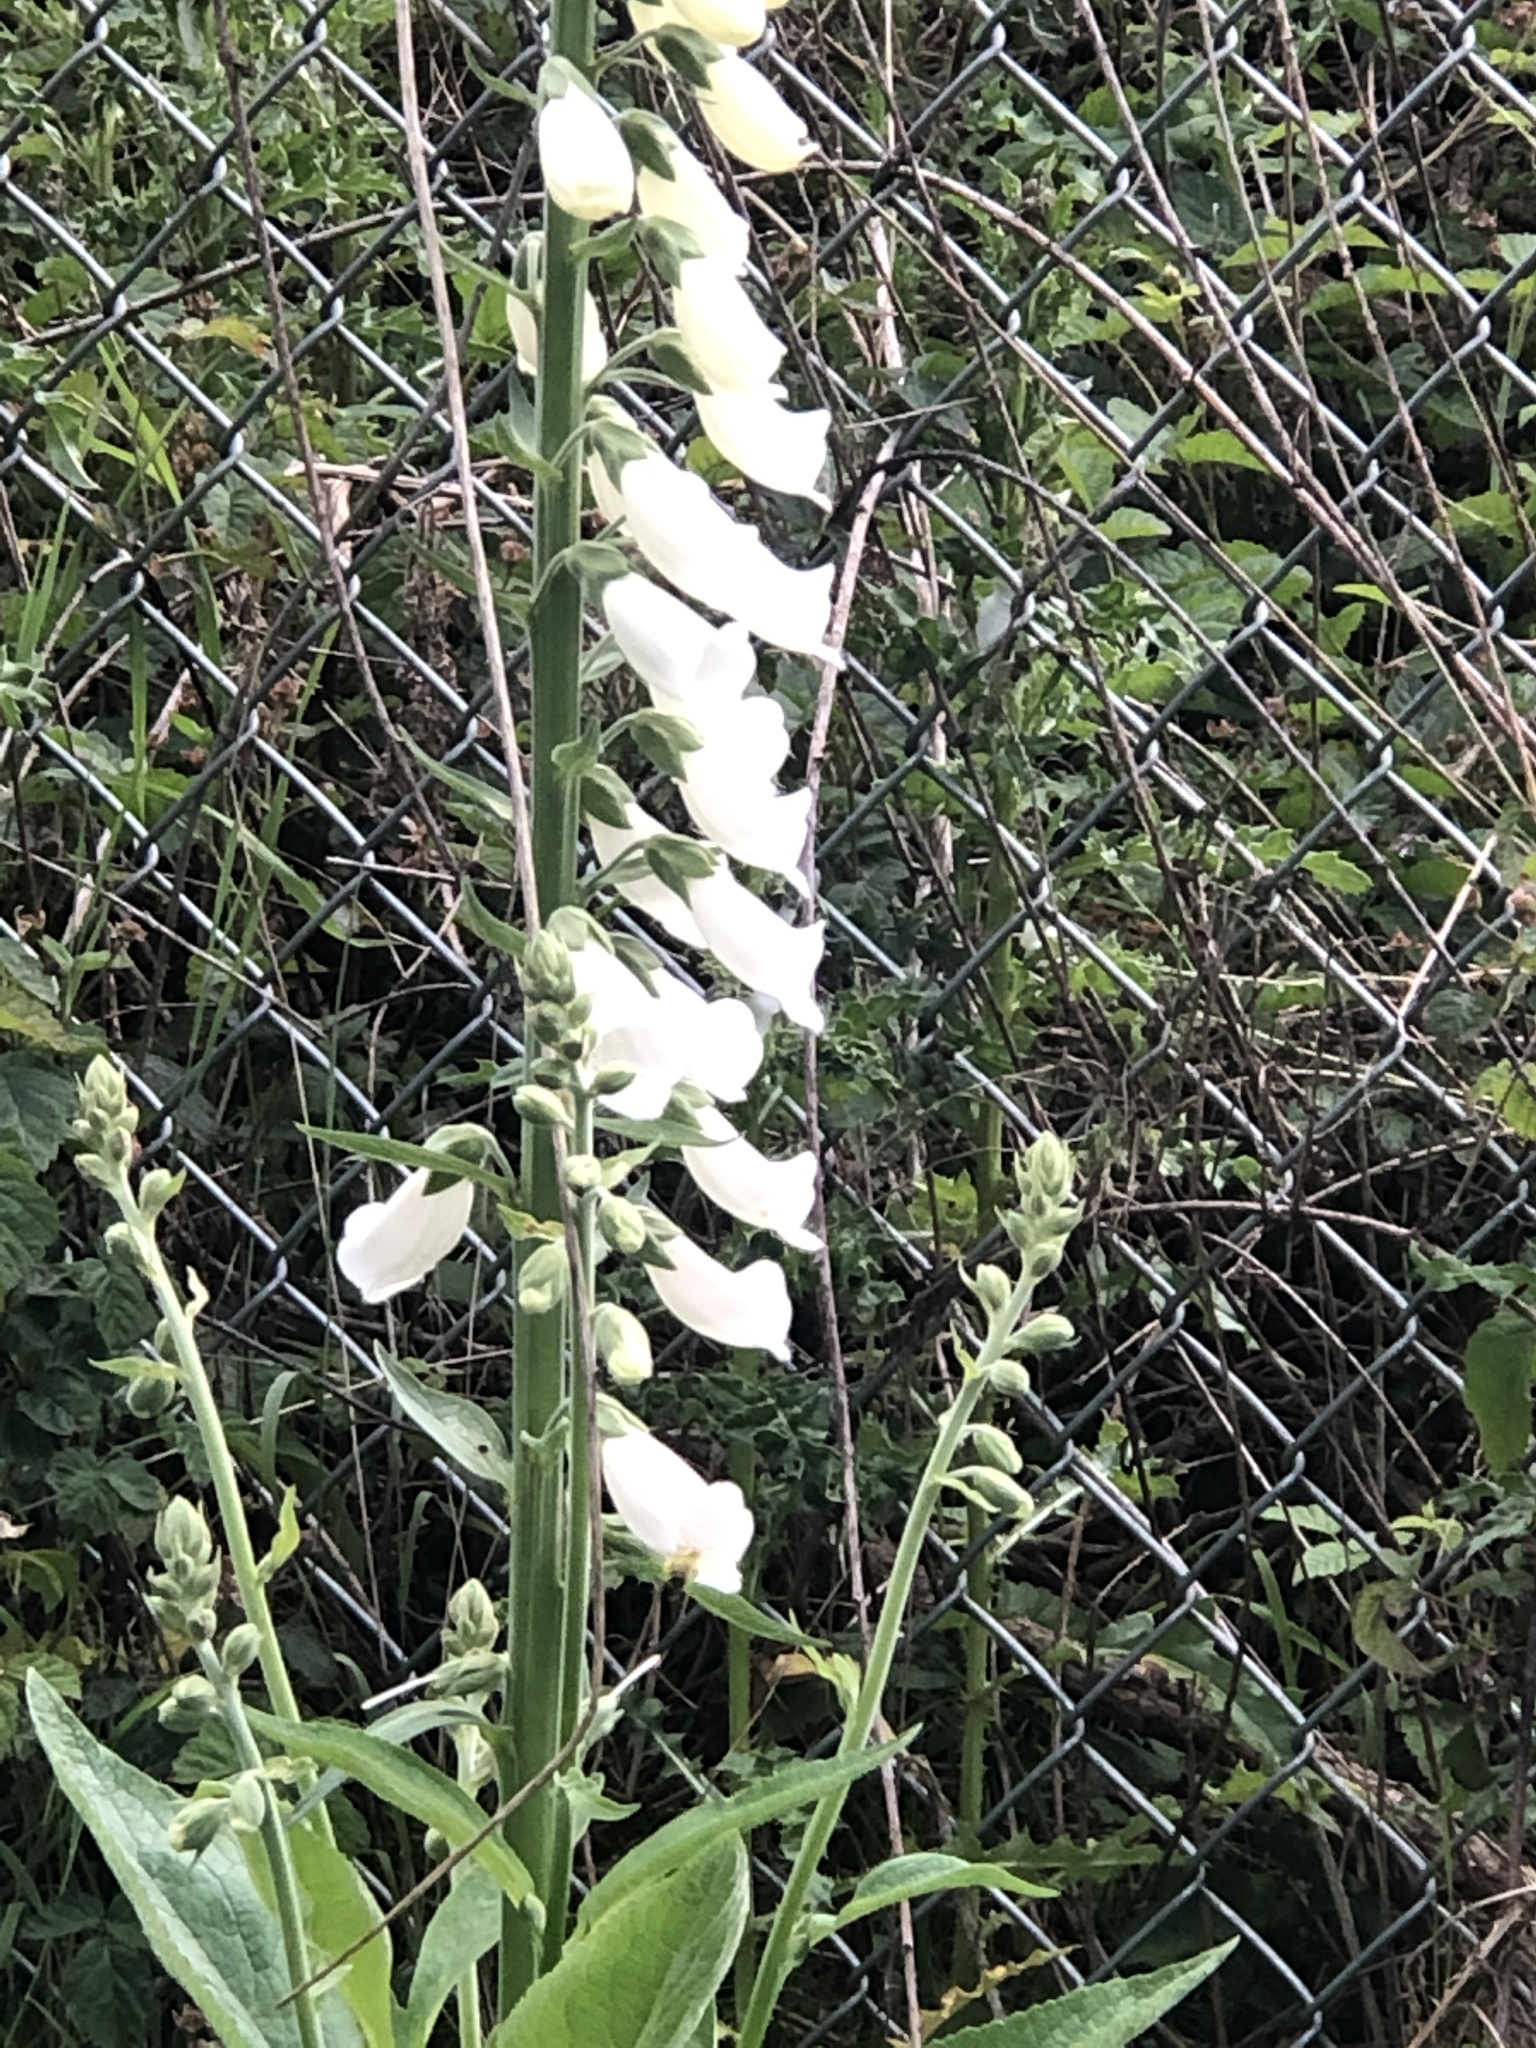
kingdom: Plantae
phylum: Tracheophyta
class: Magnoliopsida
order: Lamiales
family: Plantaginaceae
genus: Digitalis
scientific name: Digitalis purpurea
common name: Foxglove
